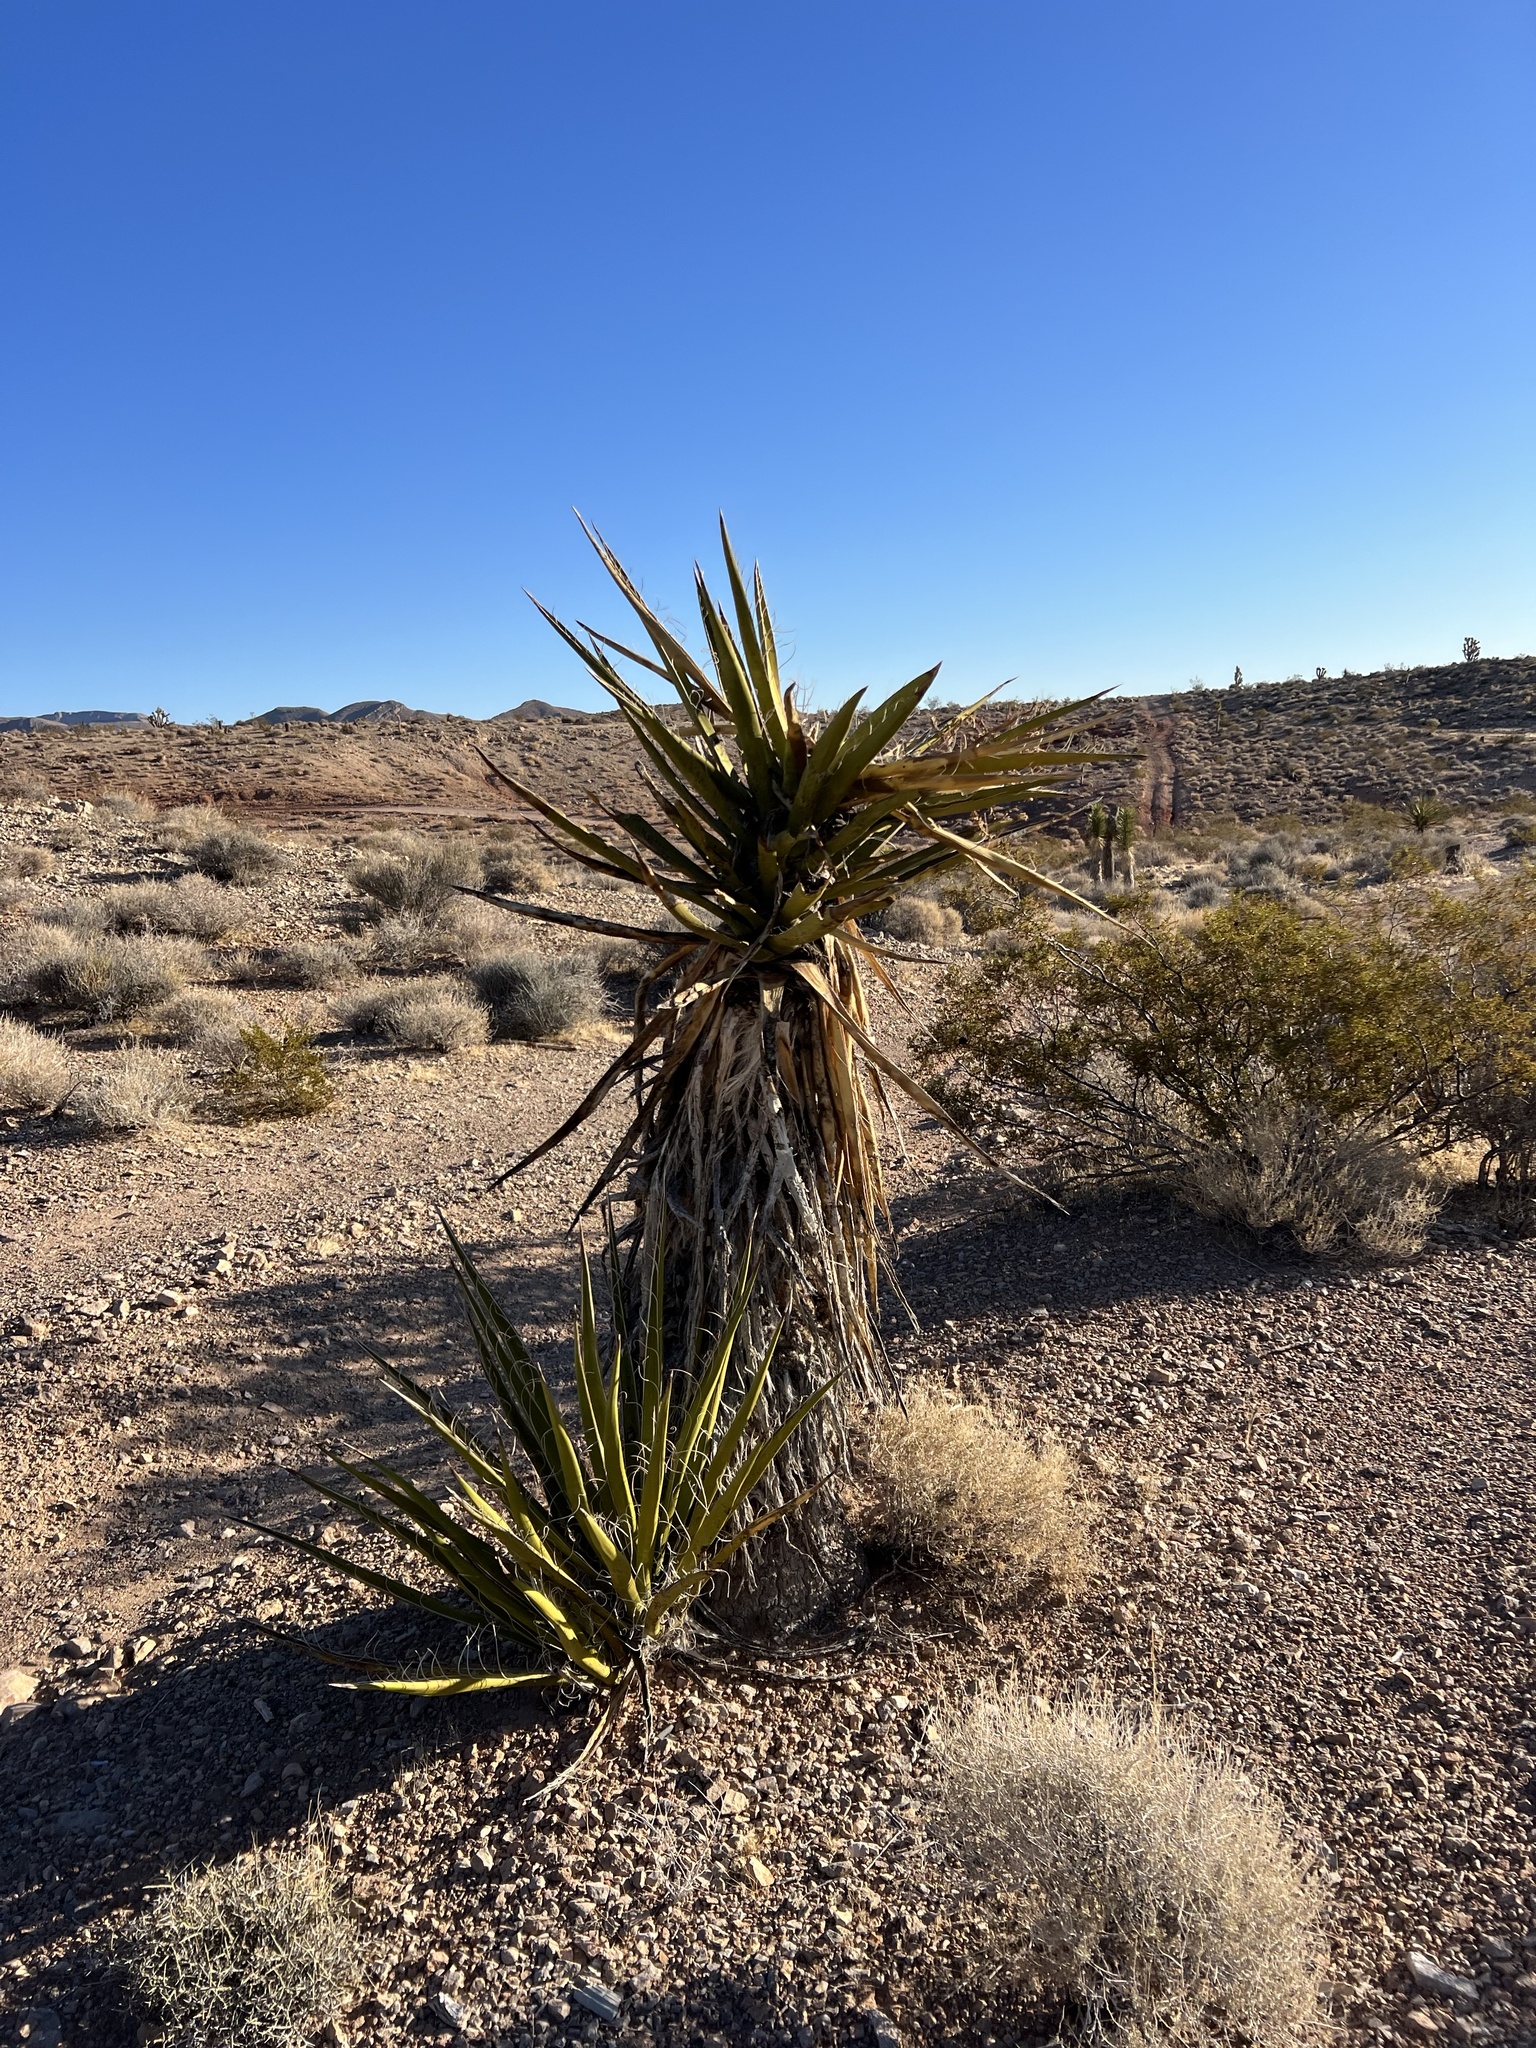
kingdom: Plantae
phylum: Tracheophyta
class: Liliopsida
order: Asparagales
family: Asparagaceae
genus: Yucca
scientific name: Yucca schidigera
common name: Mojave yucca
